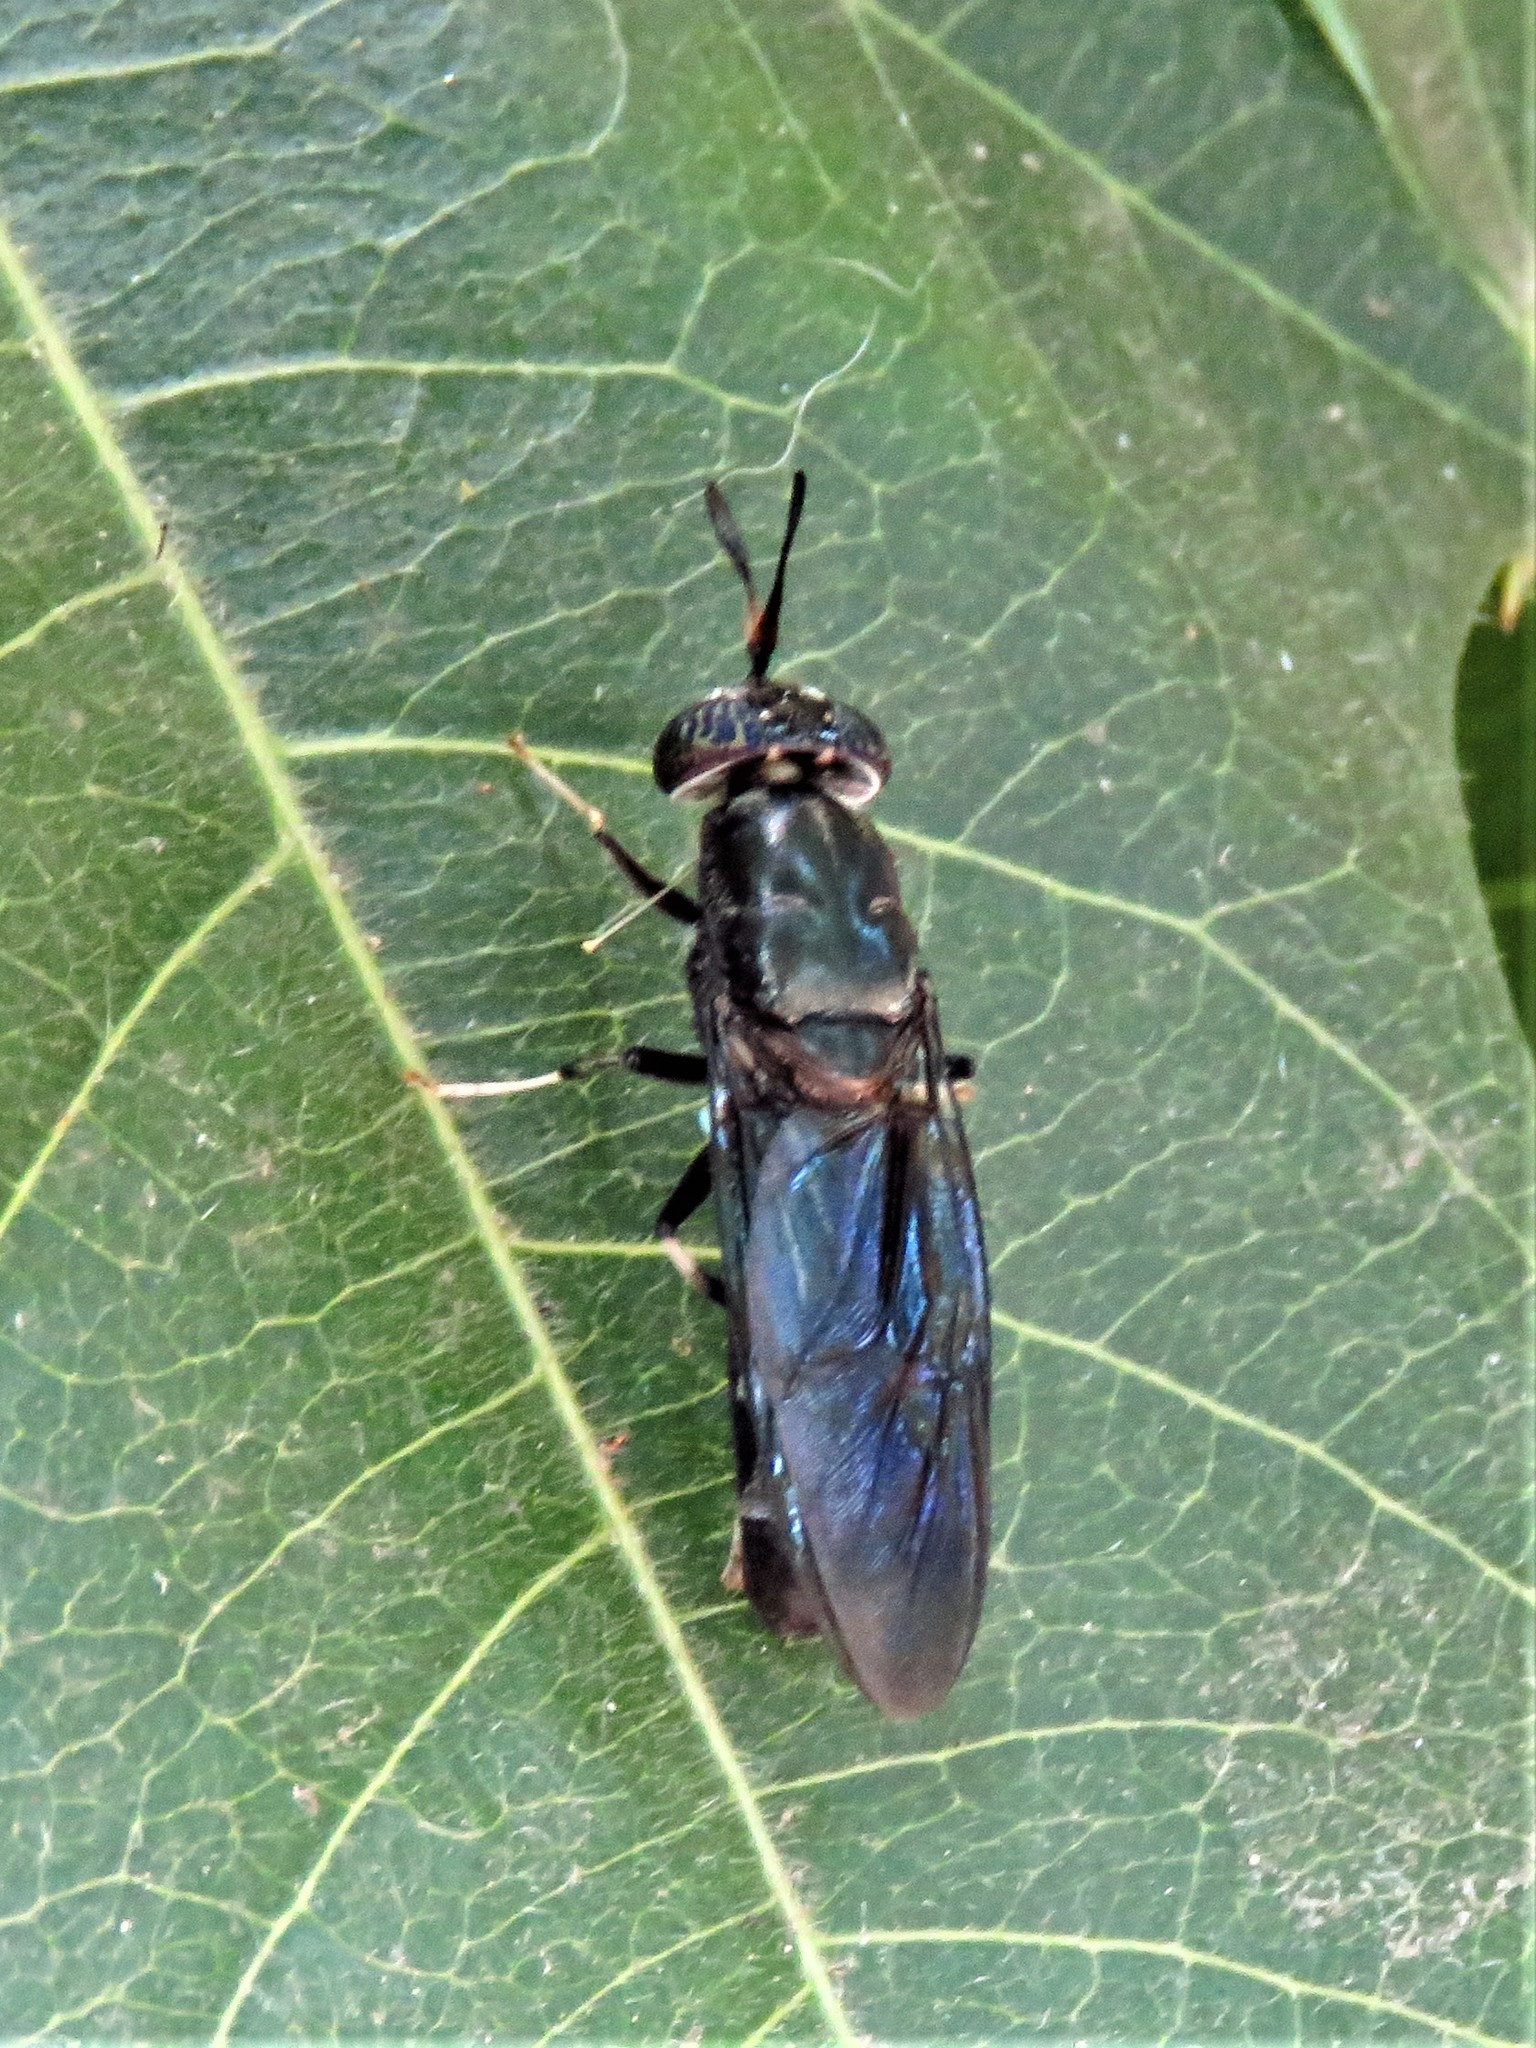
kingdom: Animalia
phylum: Arthropoda
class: Insecta
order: Diptera
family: Stratiomyidae
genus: Hermetia
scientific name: Hermetia illucens
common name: Black soldier fly
